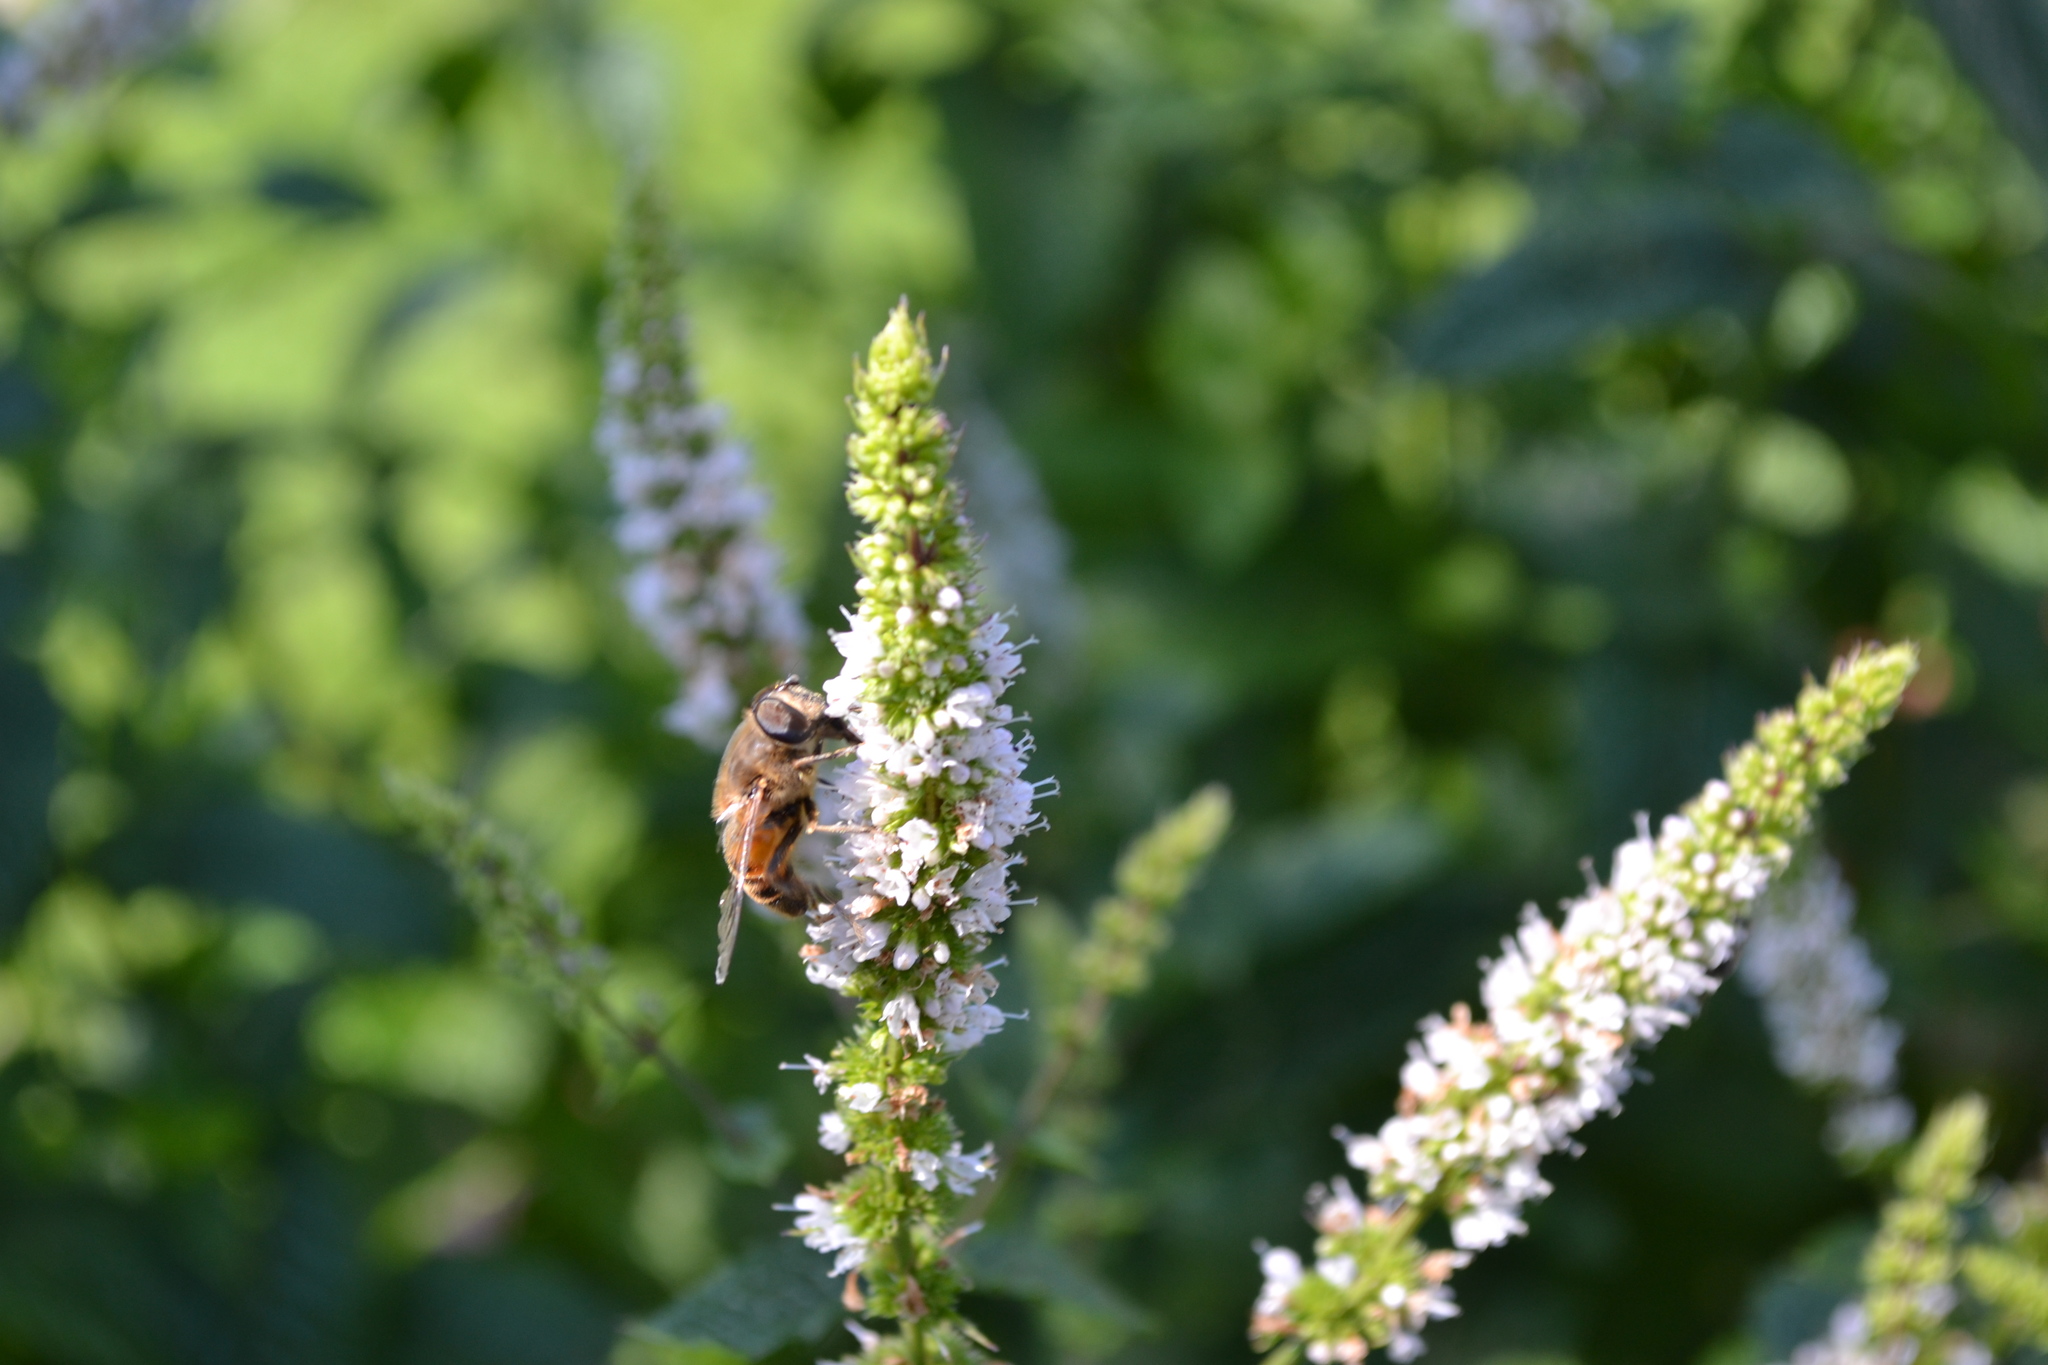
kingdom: Animalia
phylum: Arthropoda
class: Insecta
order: Diptera
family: Syrphidae
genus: Eristalis
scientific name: Eristalis tenax
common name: Drone fly
